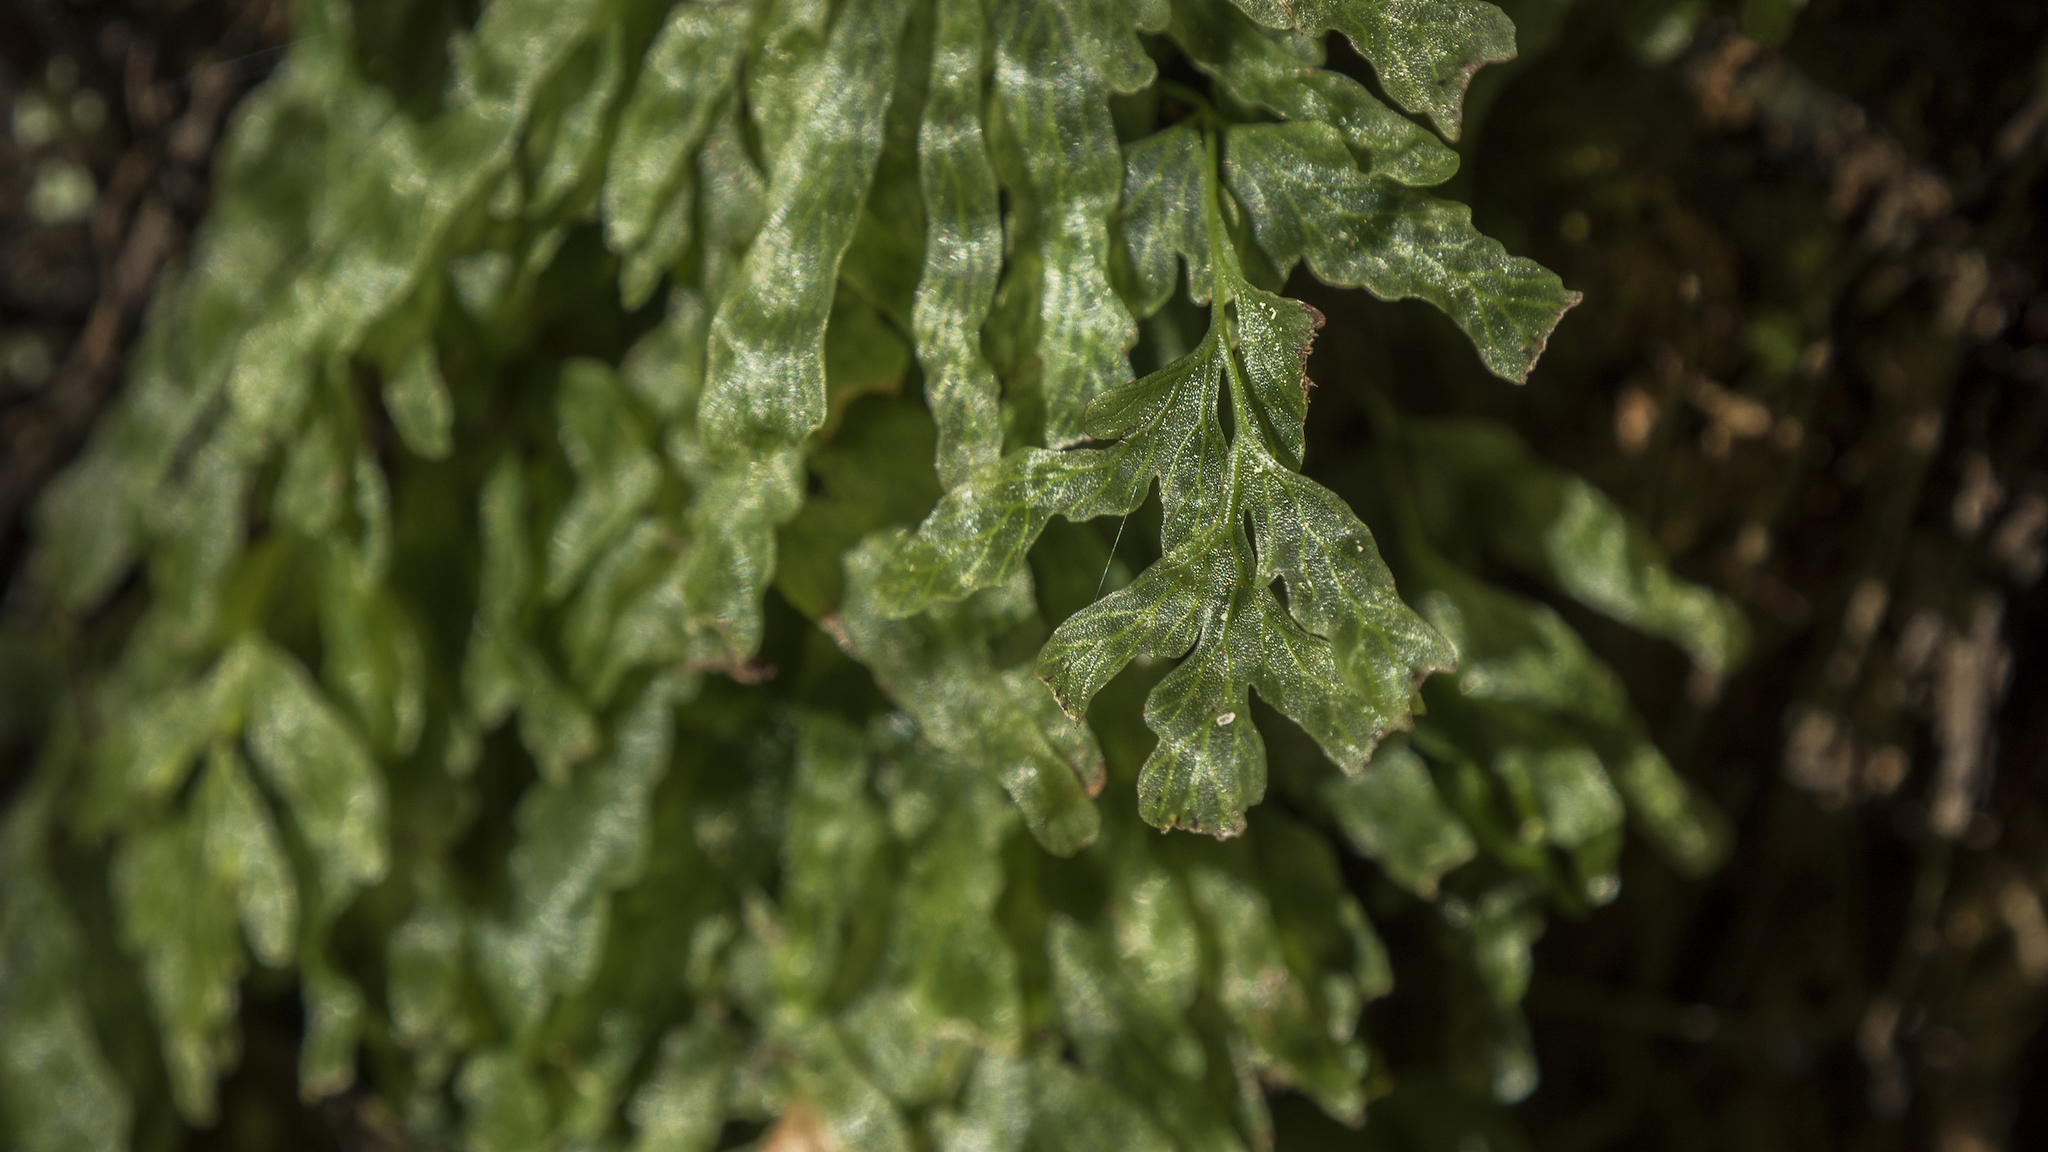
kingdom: Plantae
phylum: Tracheophyta
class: Polypodiopsida
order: Hymenophyllales
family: Hymenophyllaceae
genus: Polyphlebium
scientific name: Polyphlebium venosum
